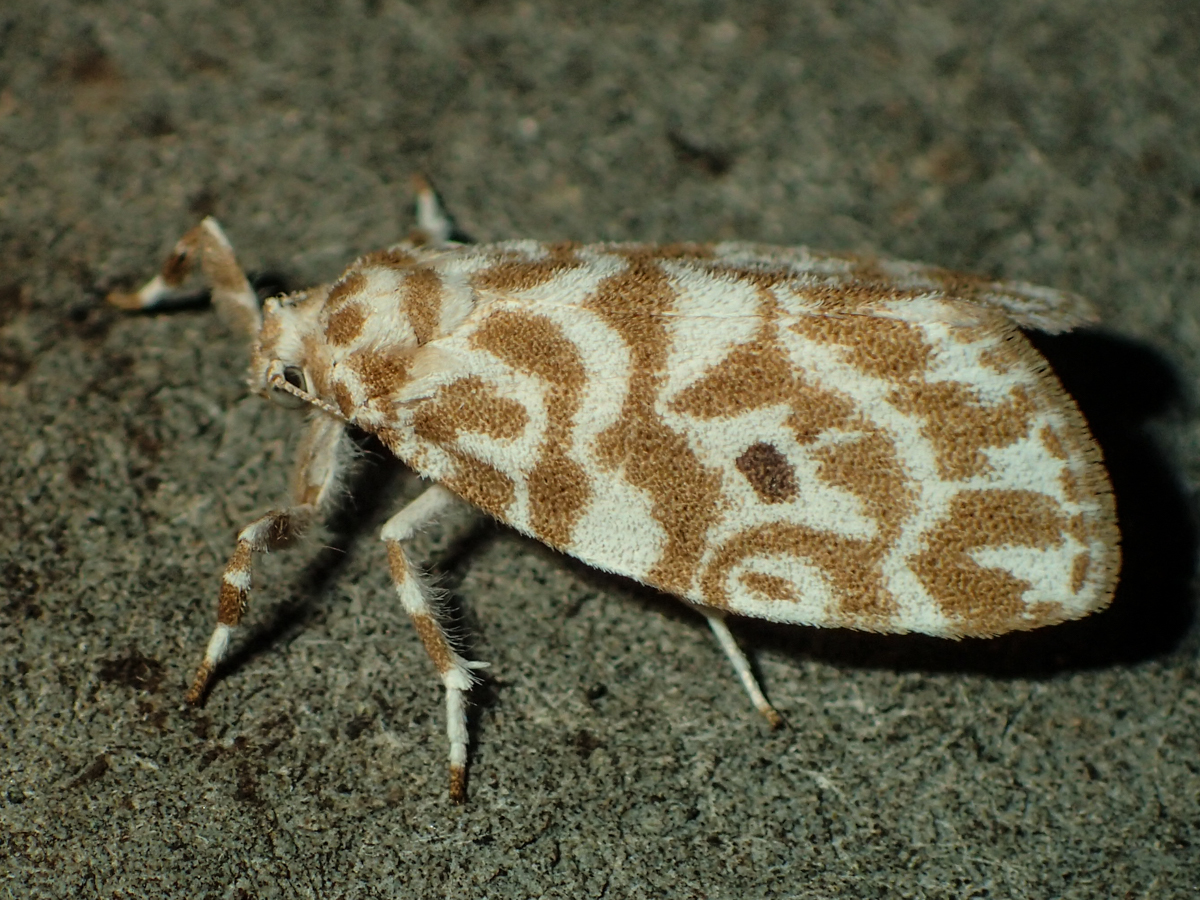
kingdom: Animalia
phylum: Arthropoda
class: Insecta
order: Lepidoptera
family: Erebidae
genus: Cabarda
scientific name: Cabarda nigripuncta
